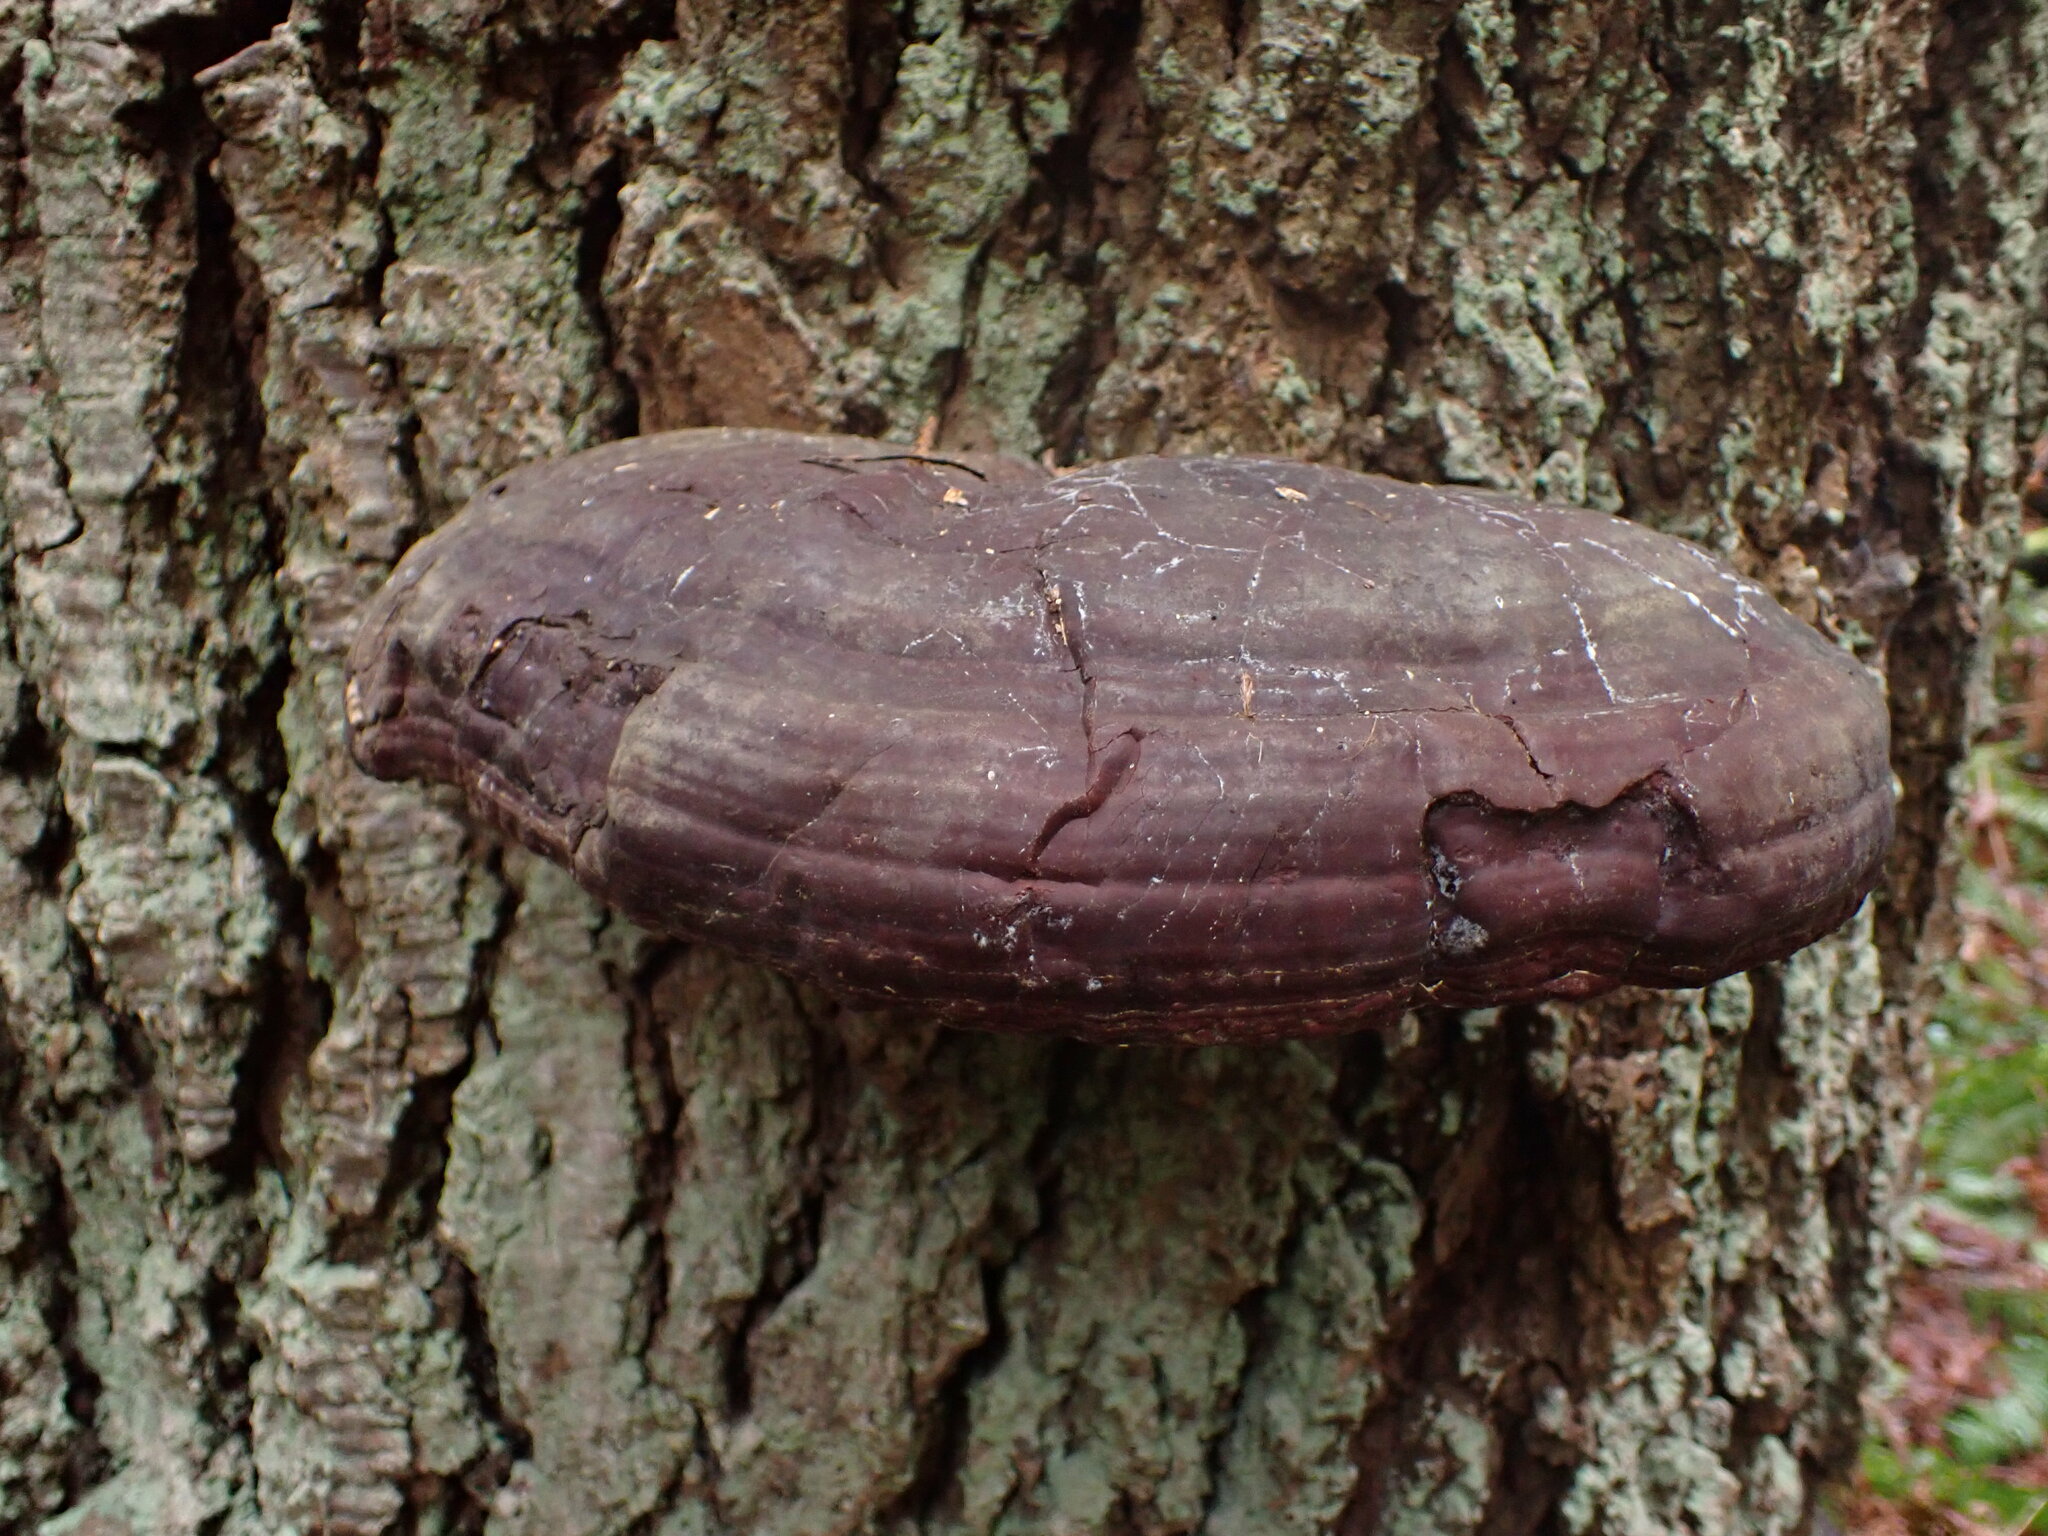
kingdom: Fungi
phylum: Basidiomycota
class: Agaricomycetes
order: Polyporales
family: Polyporaceae
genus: Ganoderma
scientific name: Ganoderma oregonense
